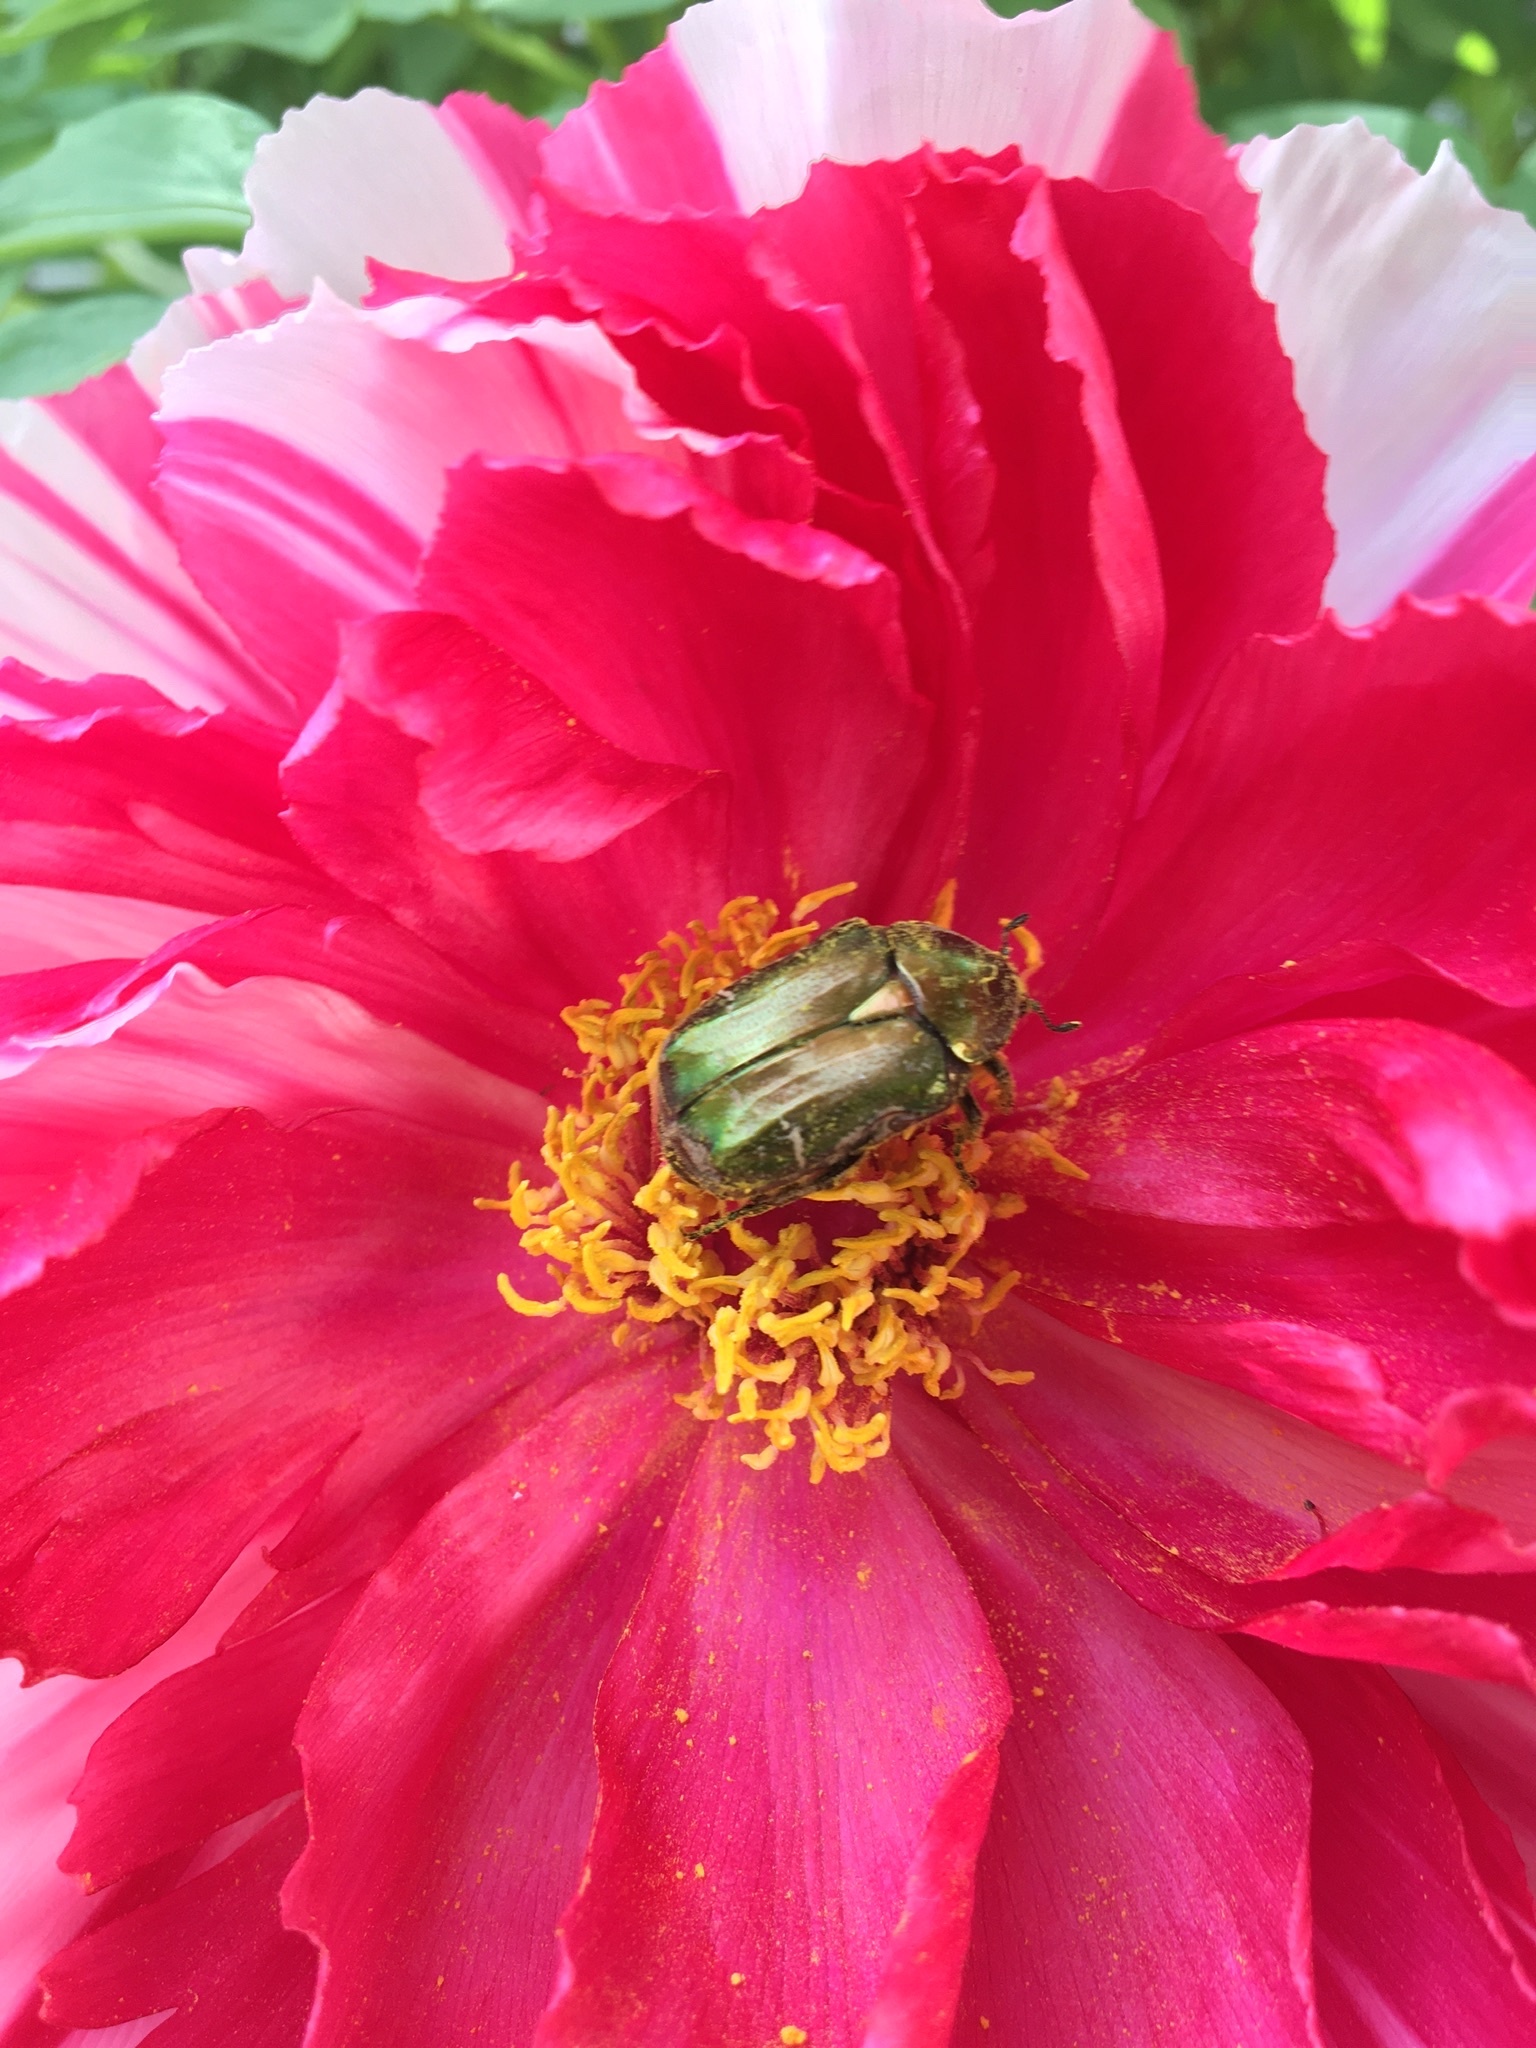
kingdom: Animalia
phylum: Arthropoda
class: Insecta
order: Coleoptera
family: Scarabaeidae
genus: Cetonia
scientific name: Cetonia aurata
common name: Rose chafer
